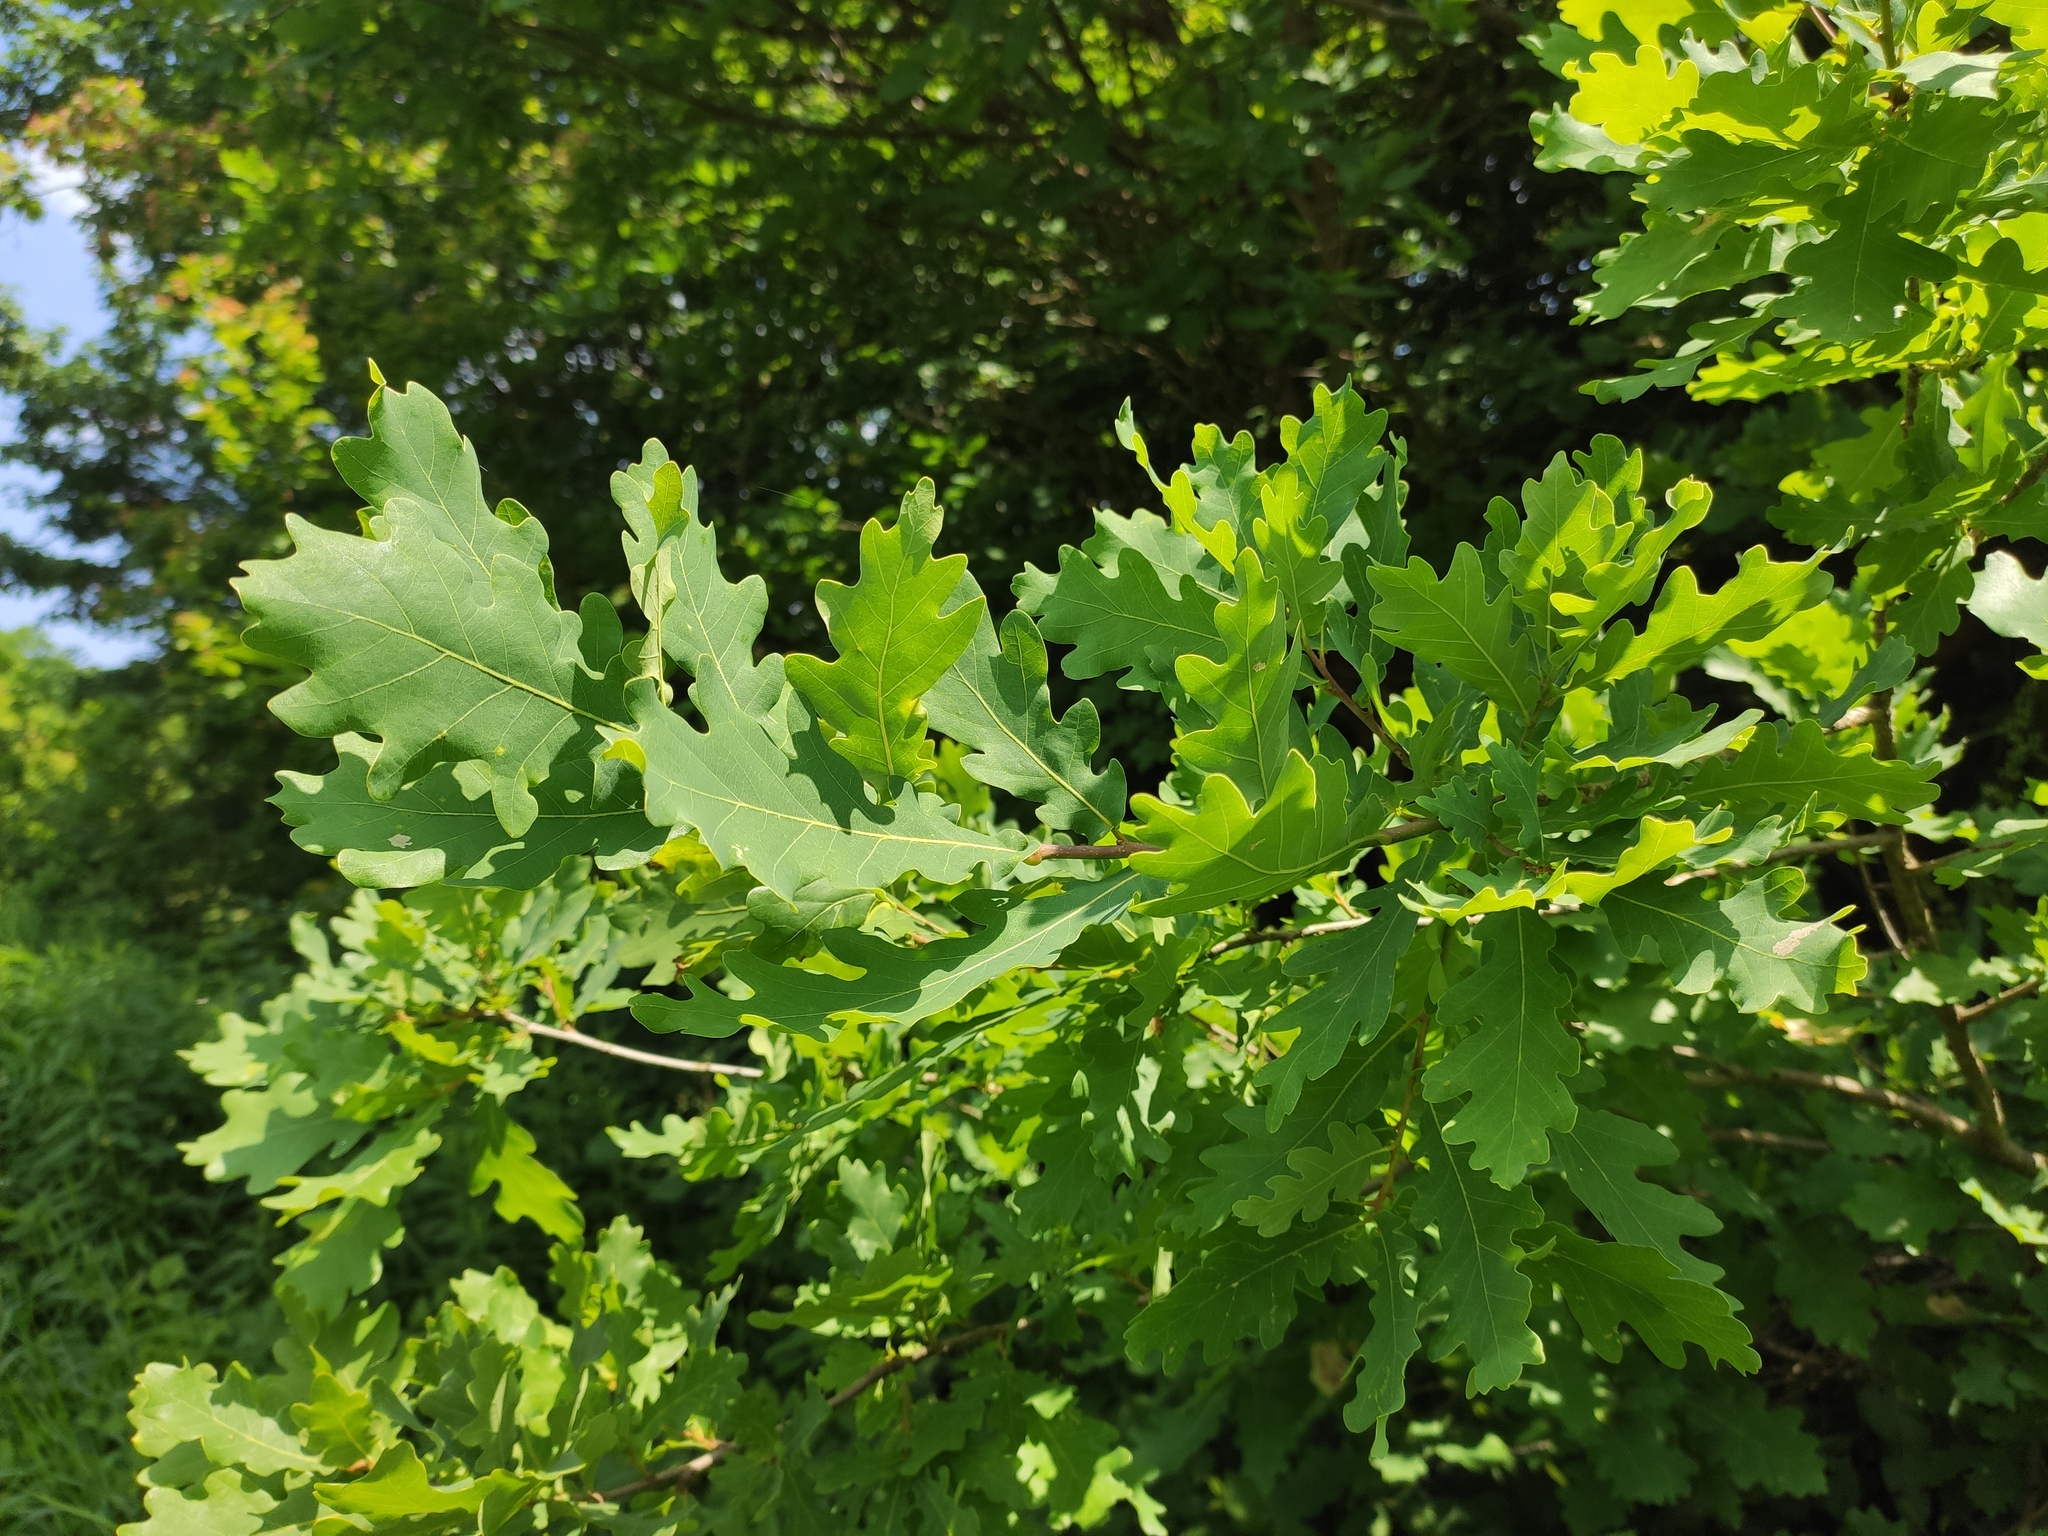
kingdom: Plantae
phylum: Tracheophyta
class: Magnoliopsida
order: Fagales
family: Fagaceae
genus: Quercus
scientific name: Quercus robur
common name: Pedunculate oak
